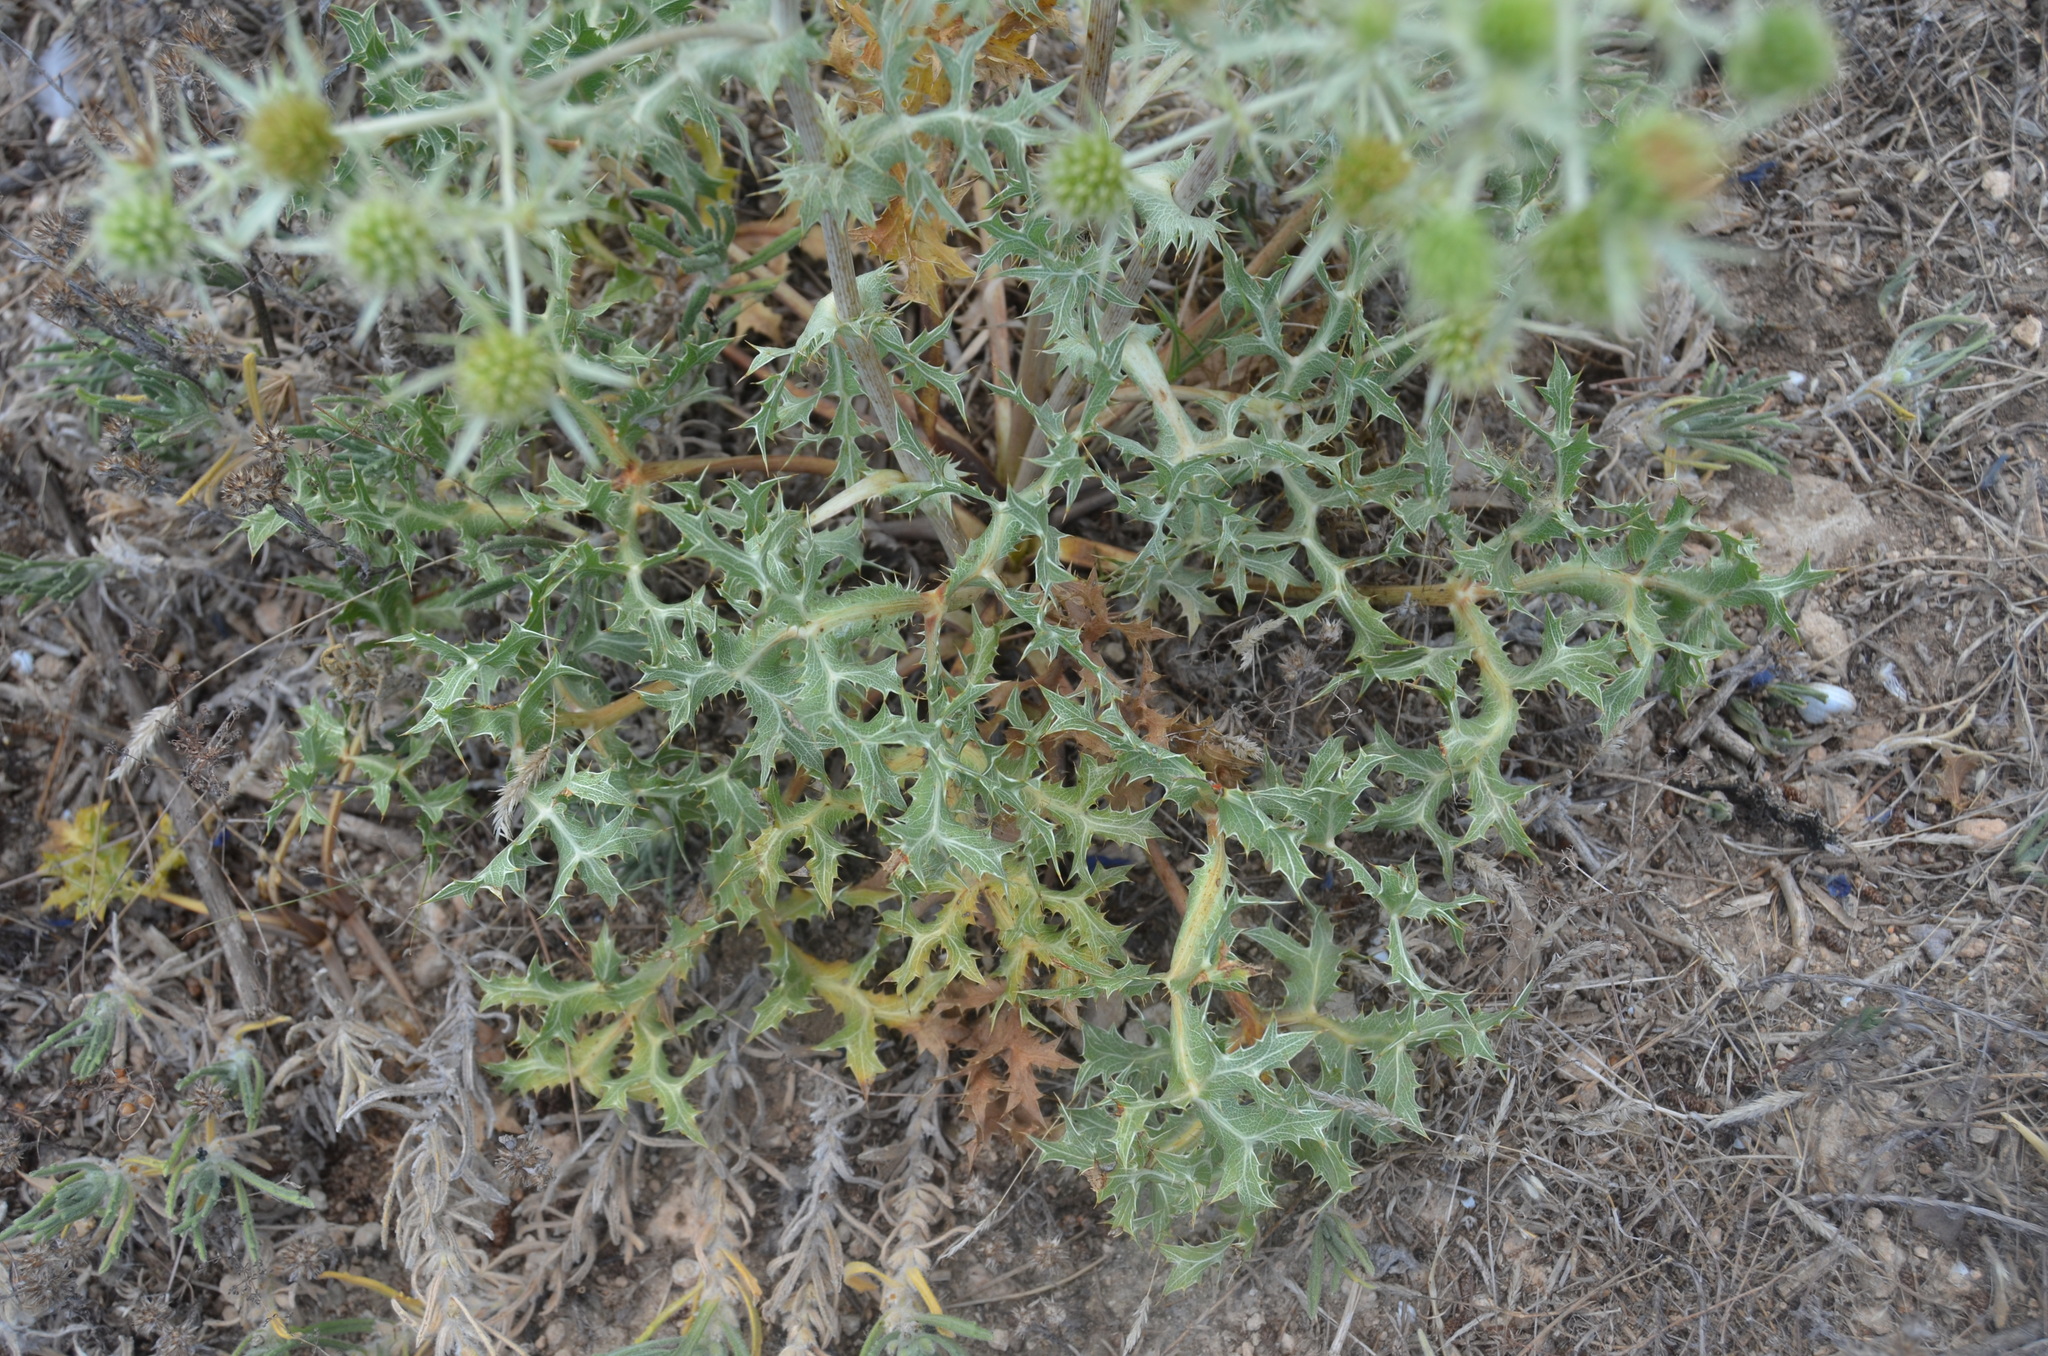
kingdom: Plantae
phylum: Tracheophyta
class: Magnoliopsida
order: Apiales
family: Apiaceae
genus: Eryngium
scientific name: Eryngium campestre
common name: Field eryngo
